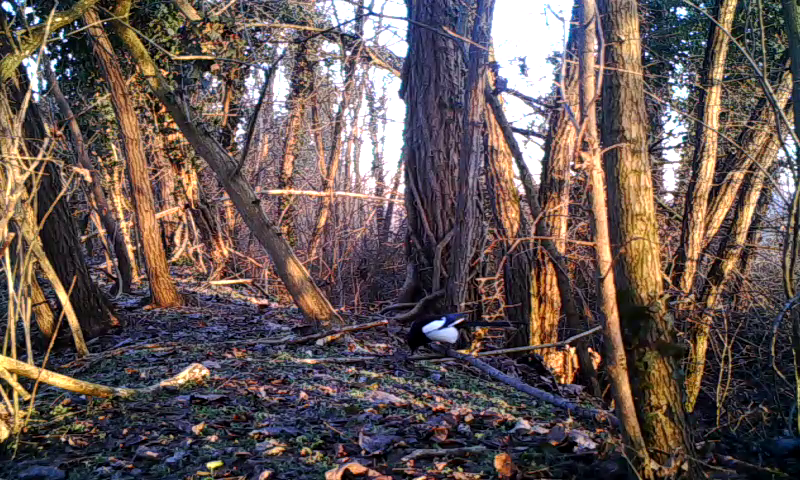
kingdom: Animalia
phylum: Chordata
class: Aves
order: Passeriformes
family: Corvidae
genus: Pica
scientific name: Pica pica
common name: Eurasian magpie
